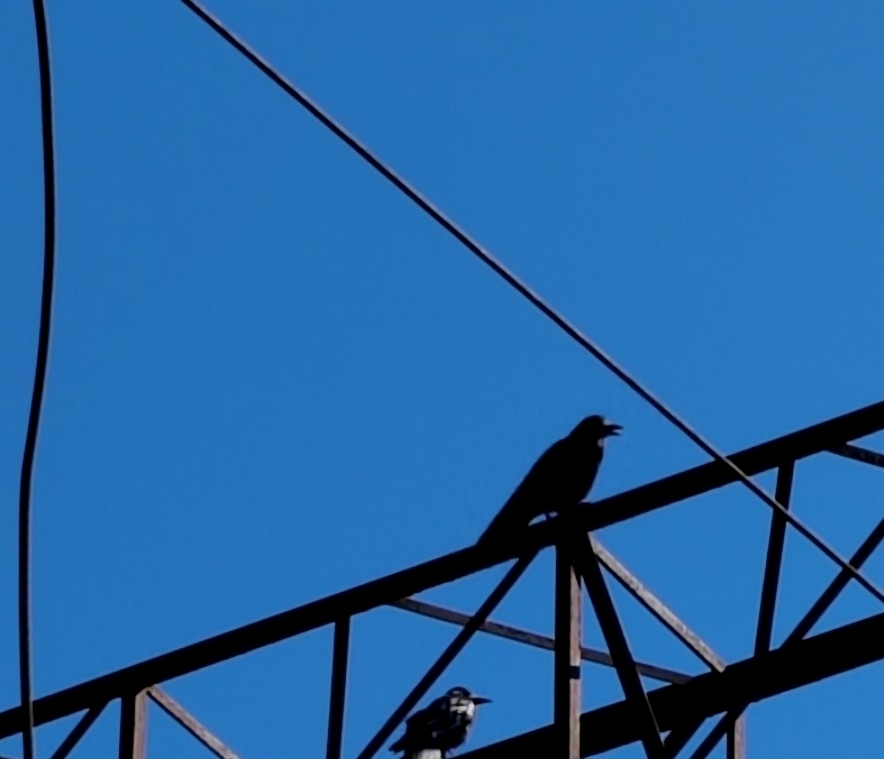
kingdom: Animalia
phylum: Chordata
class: Aves
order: Passeriformes
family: Corvidae
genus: Corvus
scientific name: Corvus frugilegus
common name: Rook
